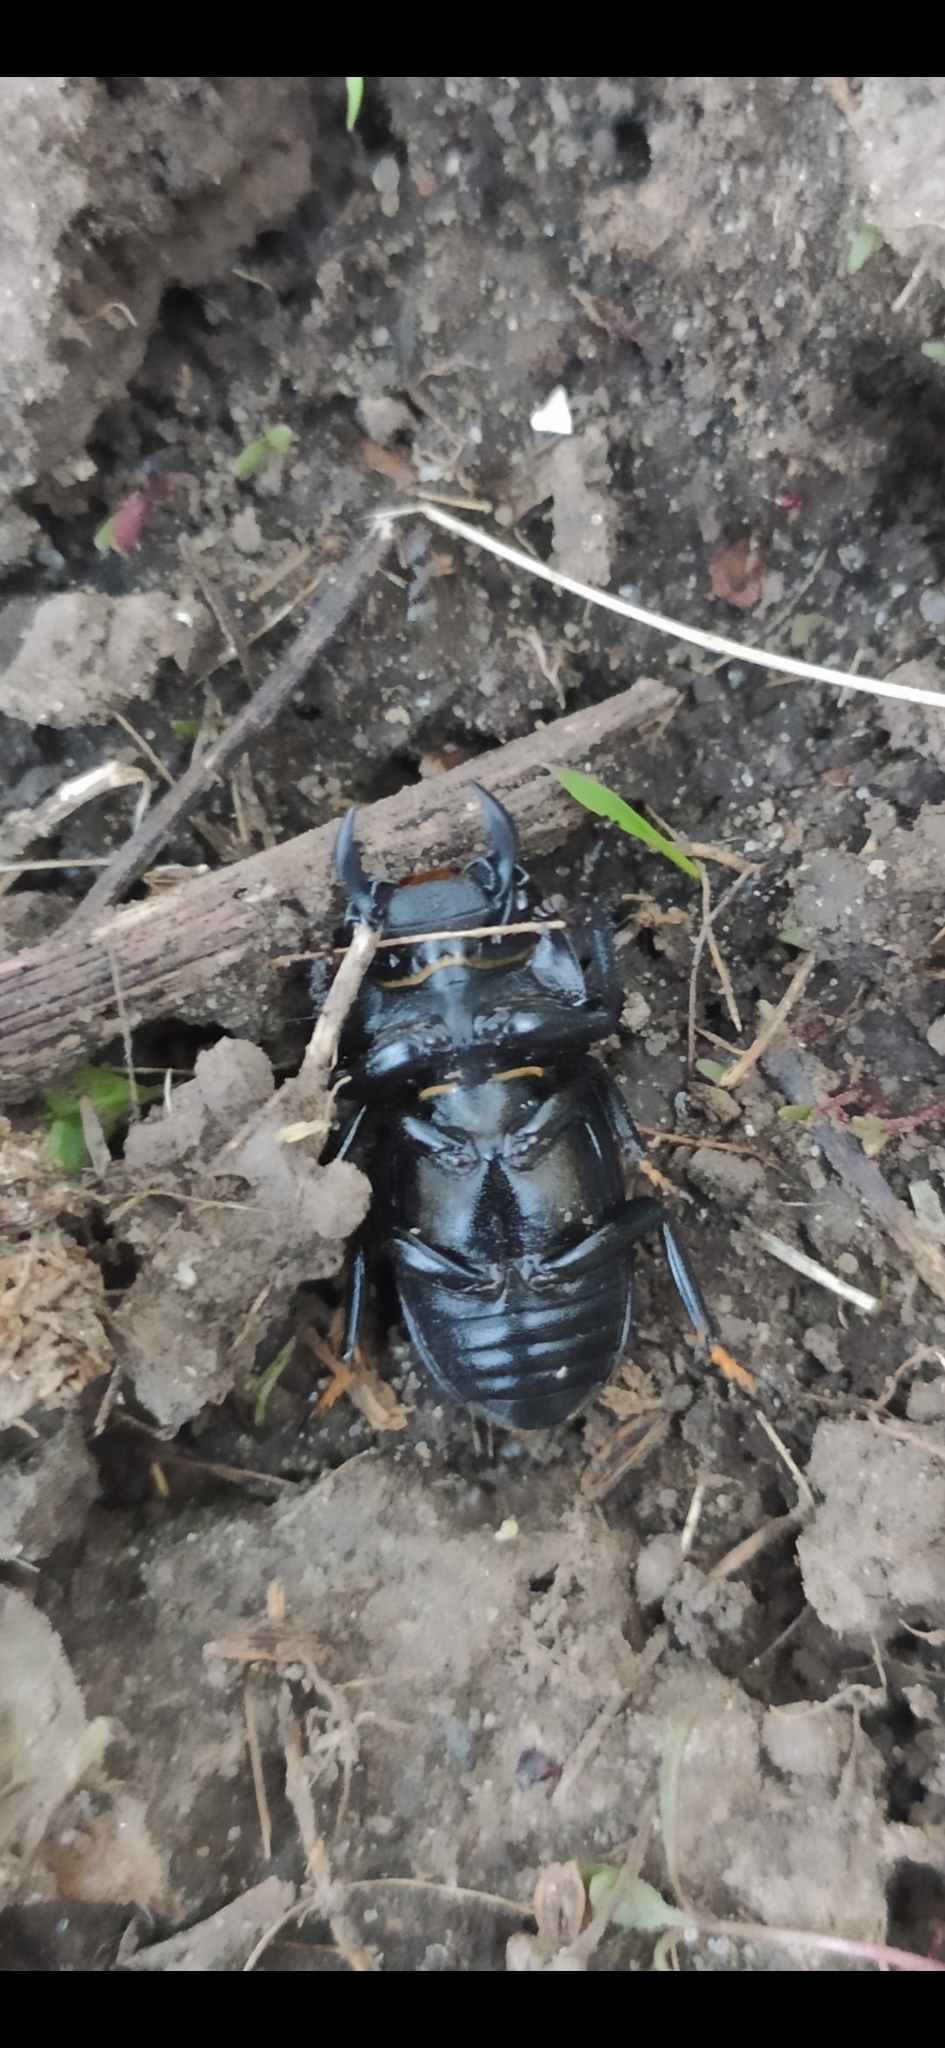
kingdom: Animalia
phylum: Arthropoda
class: Insecta
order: Coleoptera
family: Lucanidae
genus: Dorcus
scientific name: Dorcus parallelipipedus
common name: Lesser stag beetle
